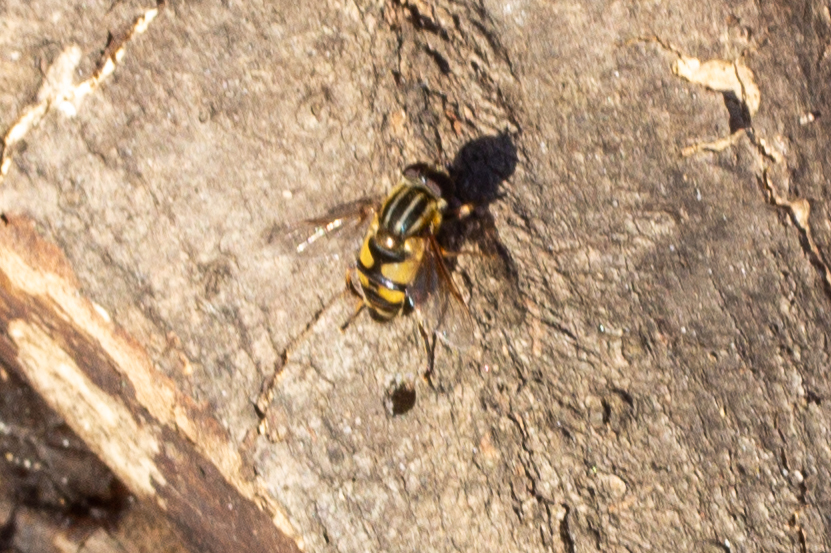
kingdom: Animalia
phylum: Arthropoda
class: Insecta
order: Diptera
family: Syrphidae
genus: Helophilus
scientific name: Helophilus fasciatus
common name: Narrow-headed marsh fly
